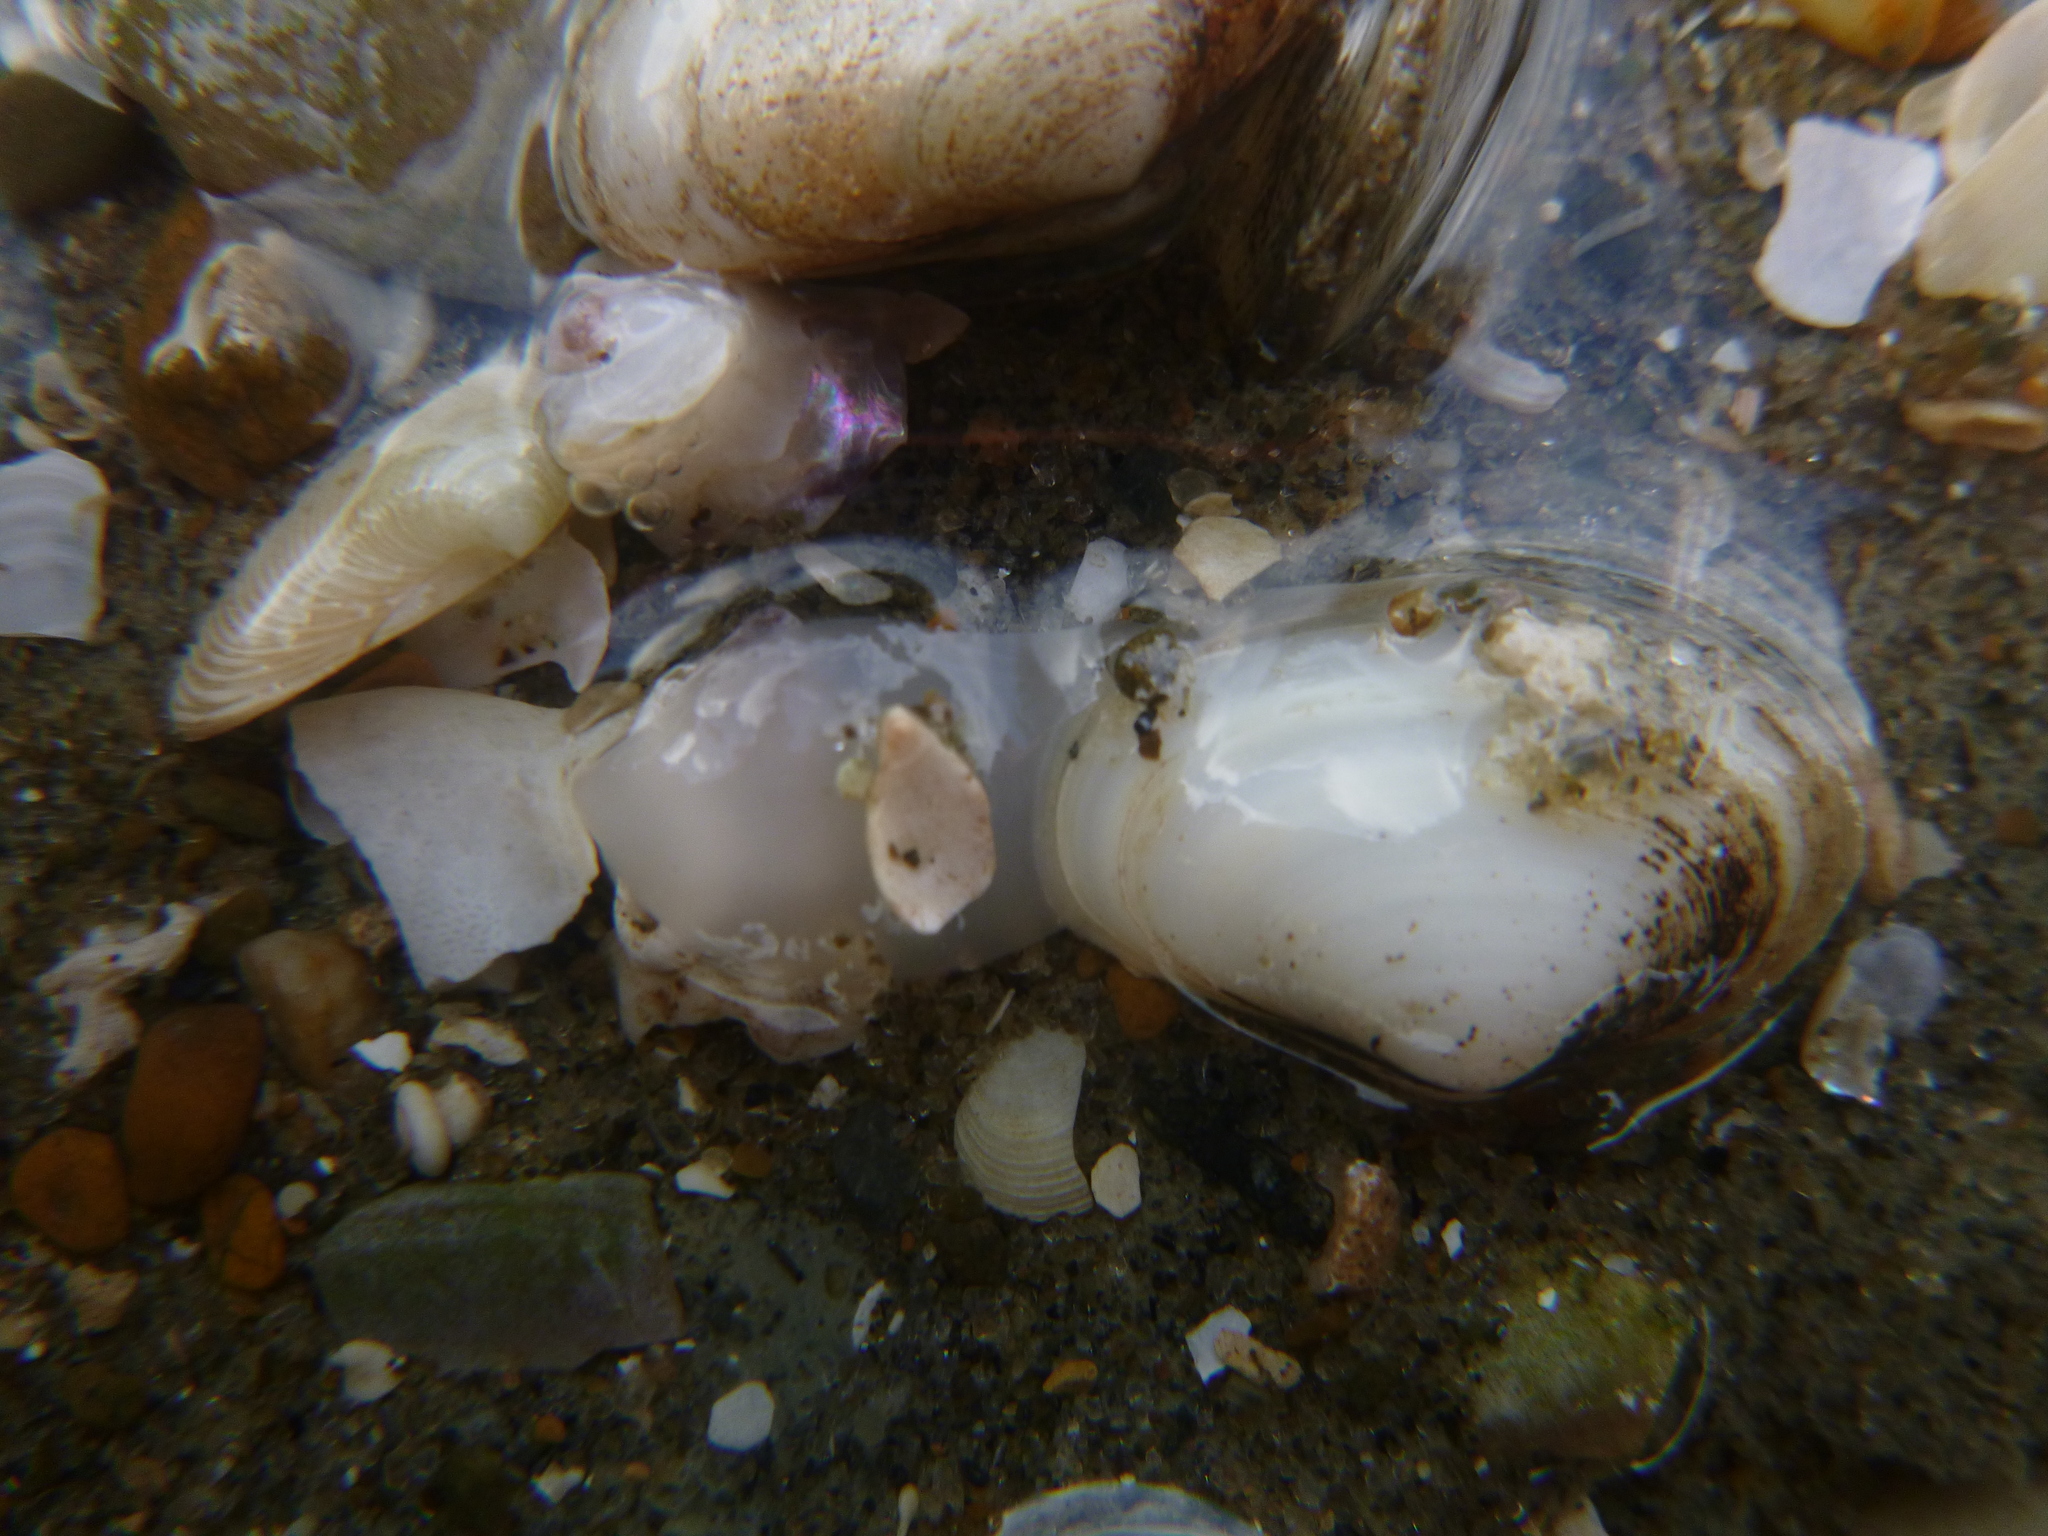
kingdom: Animalia
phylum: Mollusca
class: Bivalvia
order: Venerida
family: Mesodesmatidae
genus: Paphies
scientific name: Paphies australis
